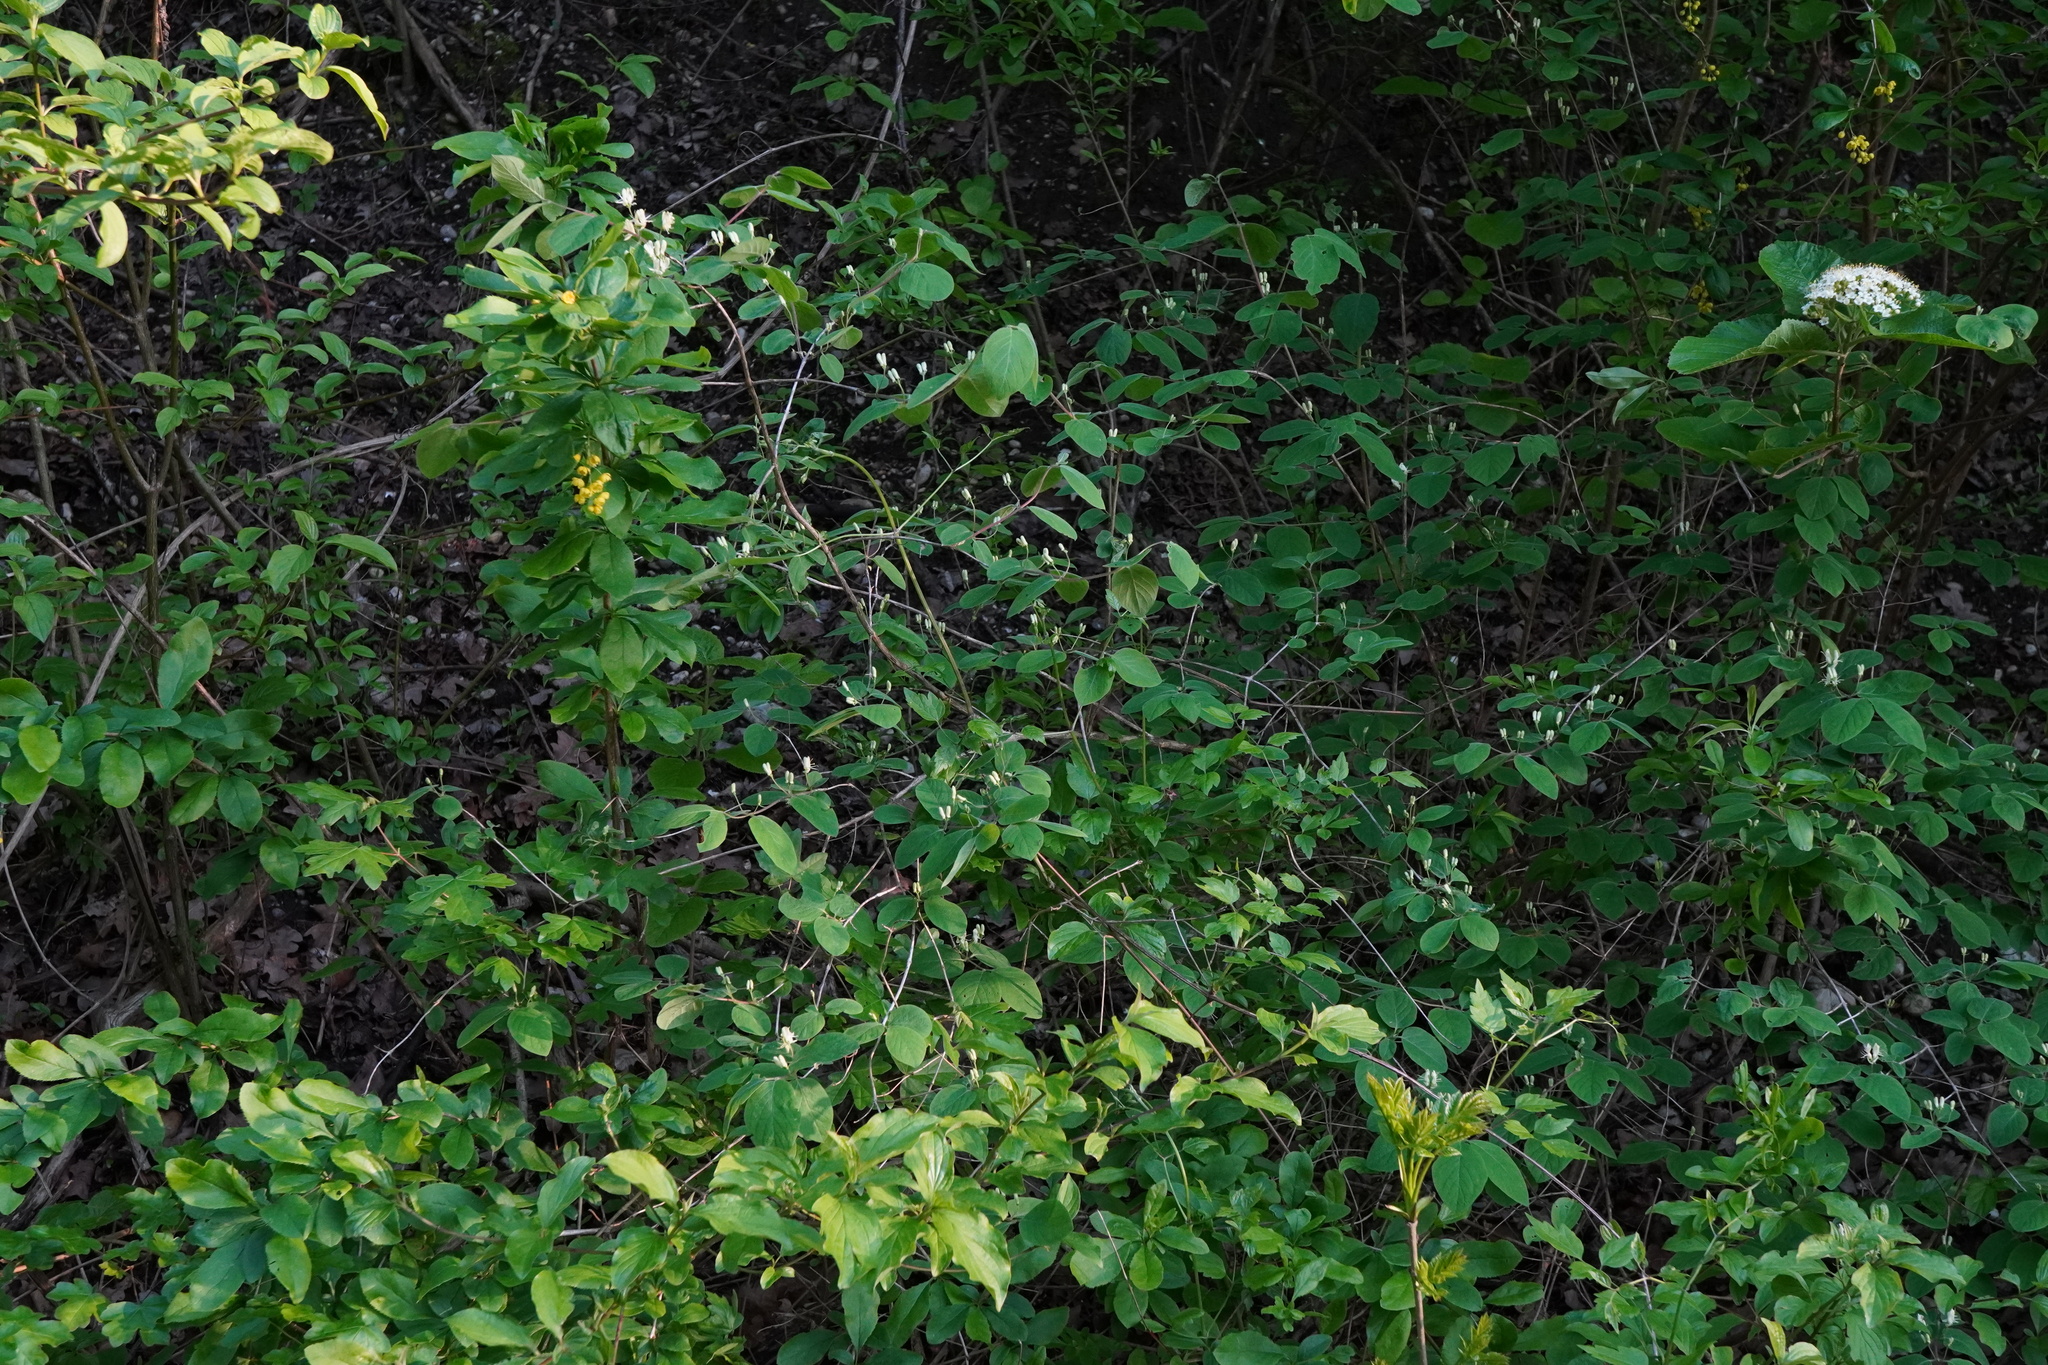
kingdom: Plantae
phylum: Tracheophyta
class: Magnoliopsida
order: Dipsacales
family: Caprifoliaceae
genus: Lonicera
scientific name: Lonicera xylosteum
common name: Fly honeysuckle
